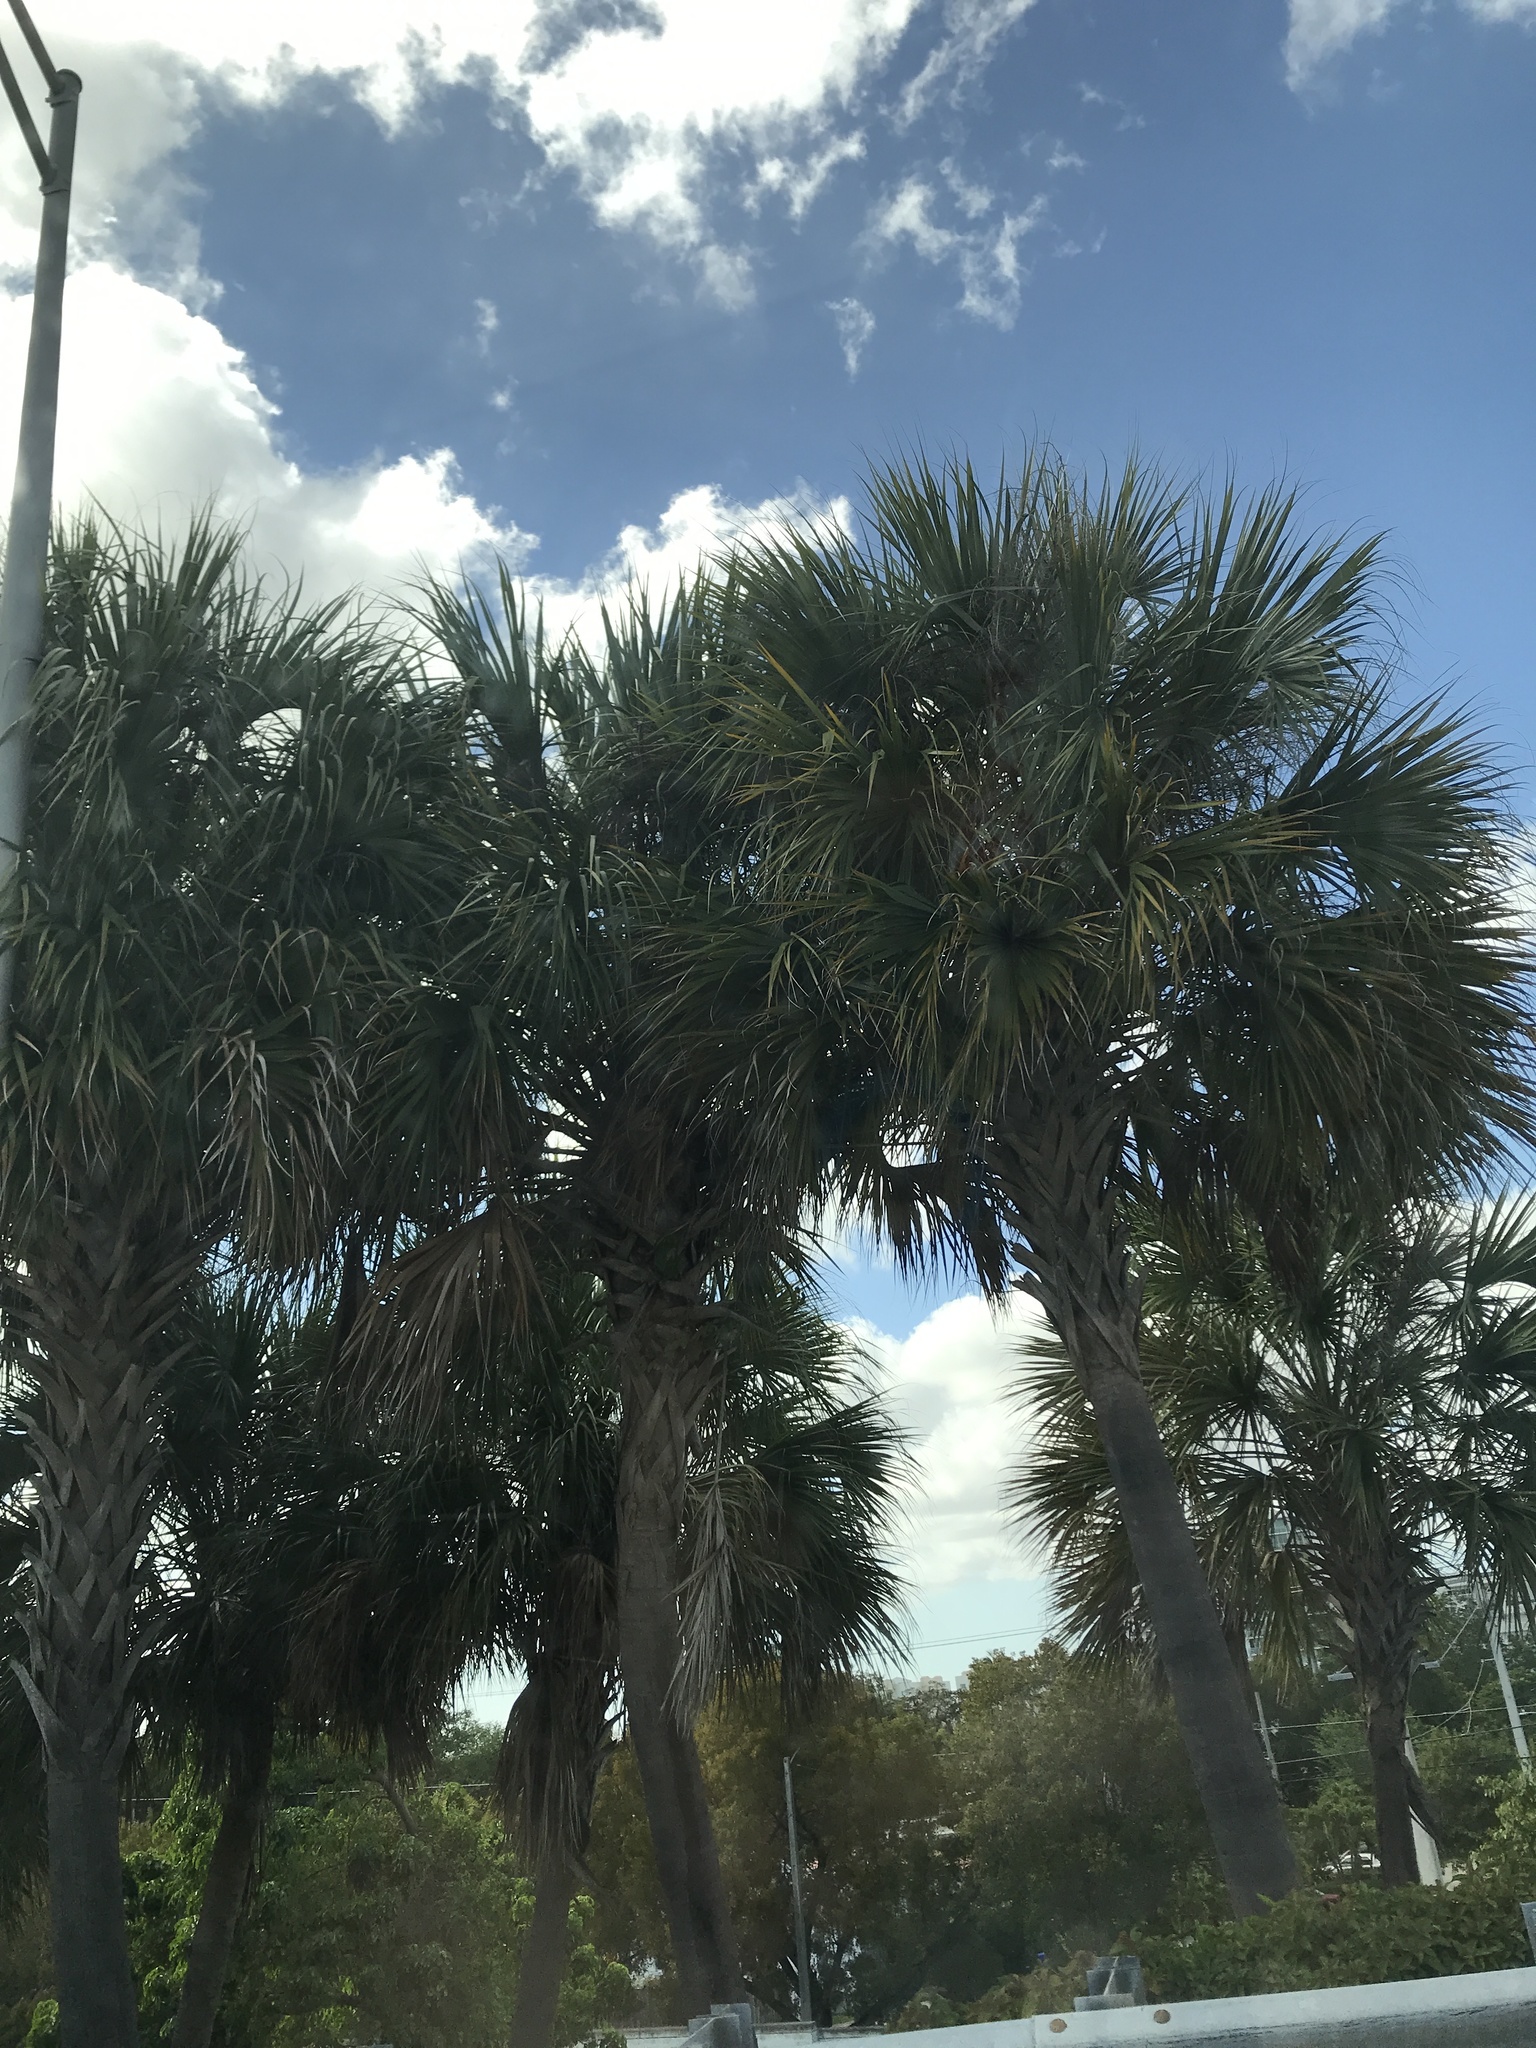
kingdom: Plantae
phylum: Tracheophyta
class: Liliopsida
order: Arecales
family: Arecaceae
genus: Sabal
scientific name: Sabal palmetto
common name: Blue palmetto
